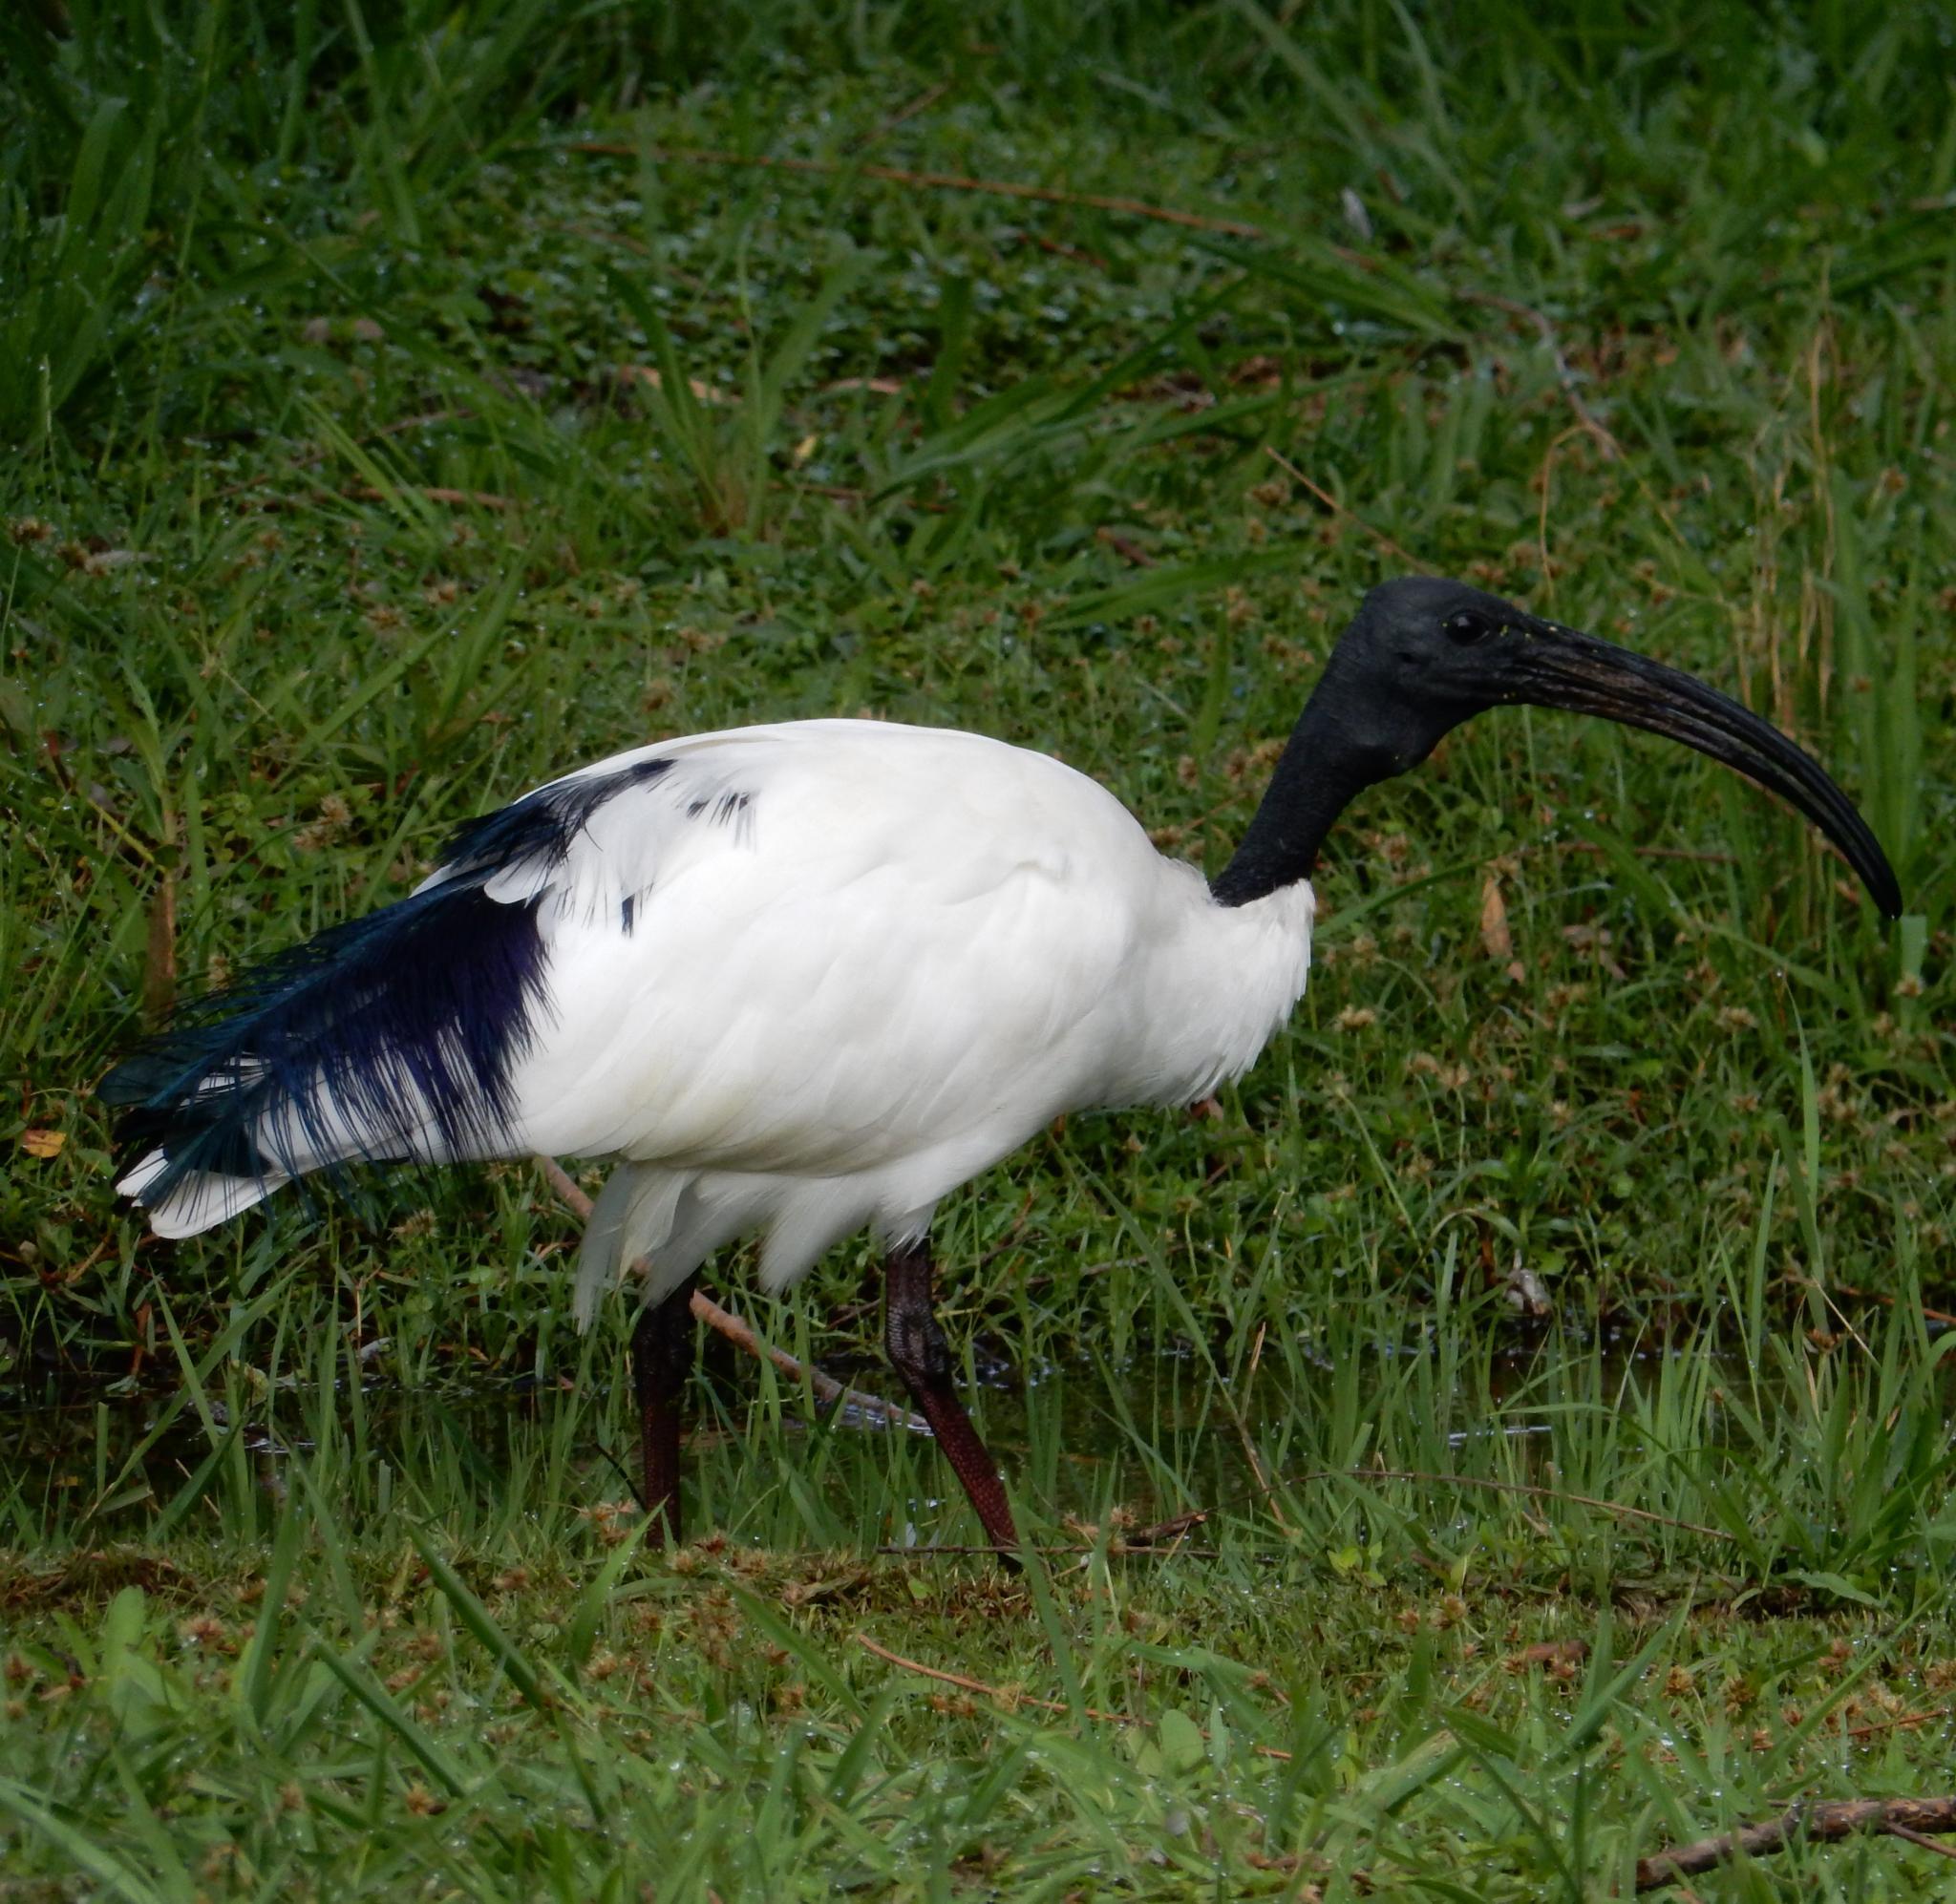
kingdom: Animalia
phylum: Chordata
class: Aves
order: Pelecaniformes
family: Threskiornithidae
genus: Threskiornis
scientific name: Threskiornis aethiopicus
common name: Sacred ibis
